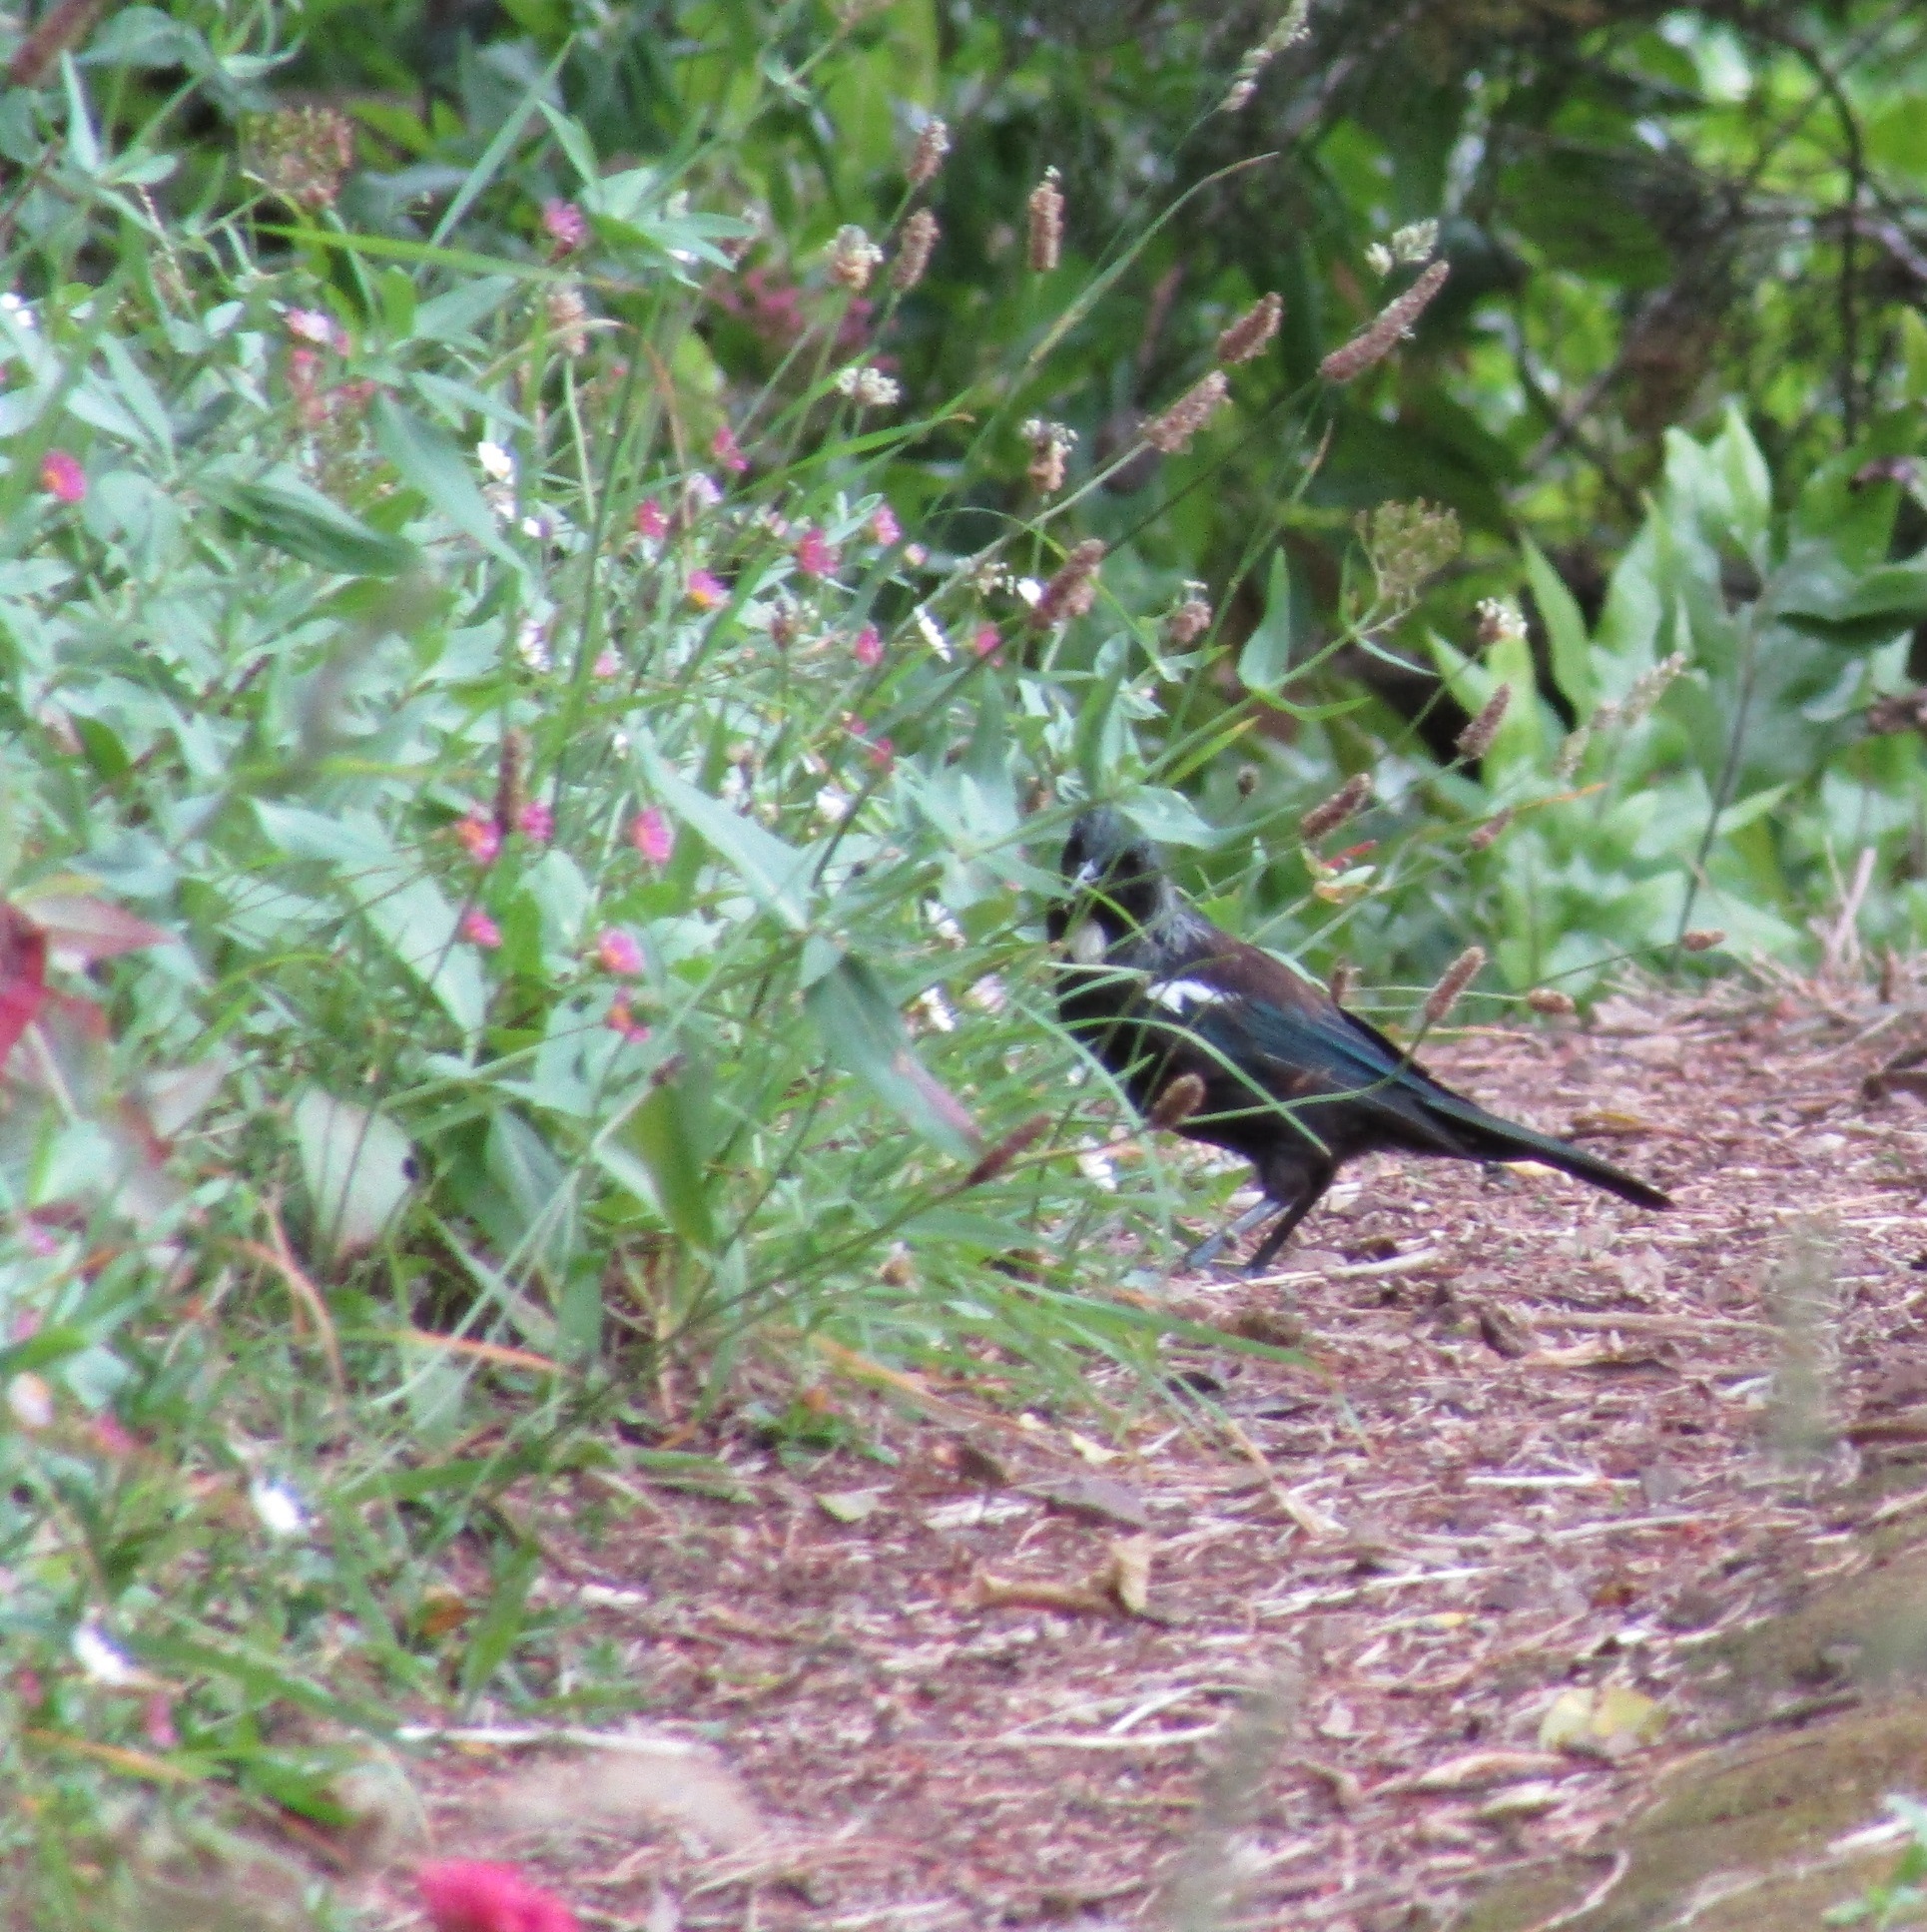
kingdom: Animalia
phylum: Chordata
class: Aves
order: Passeriformes
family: Meliphagidae
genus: Prosthemadera
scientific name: Prosthemadera novaeseelandiae
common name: Tui
